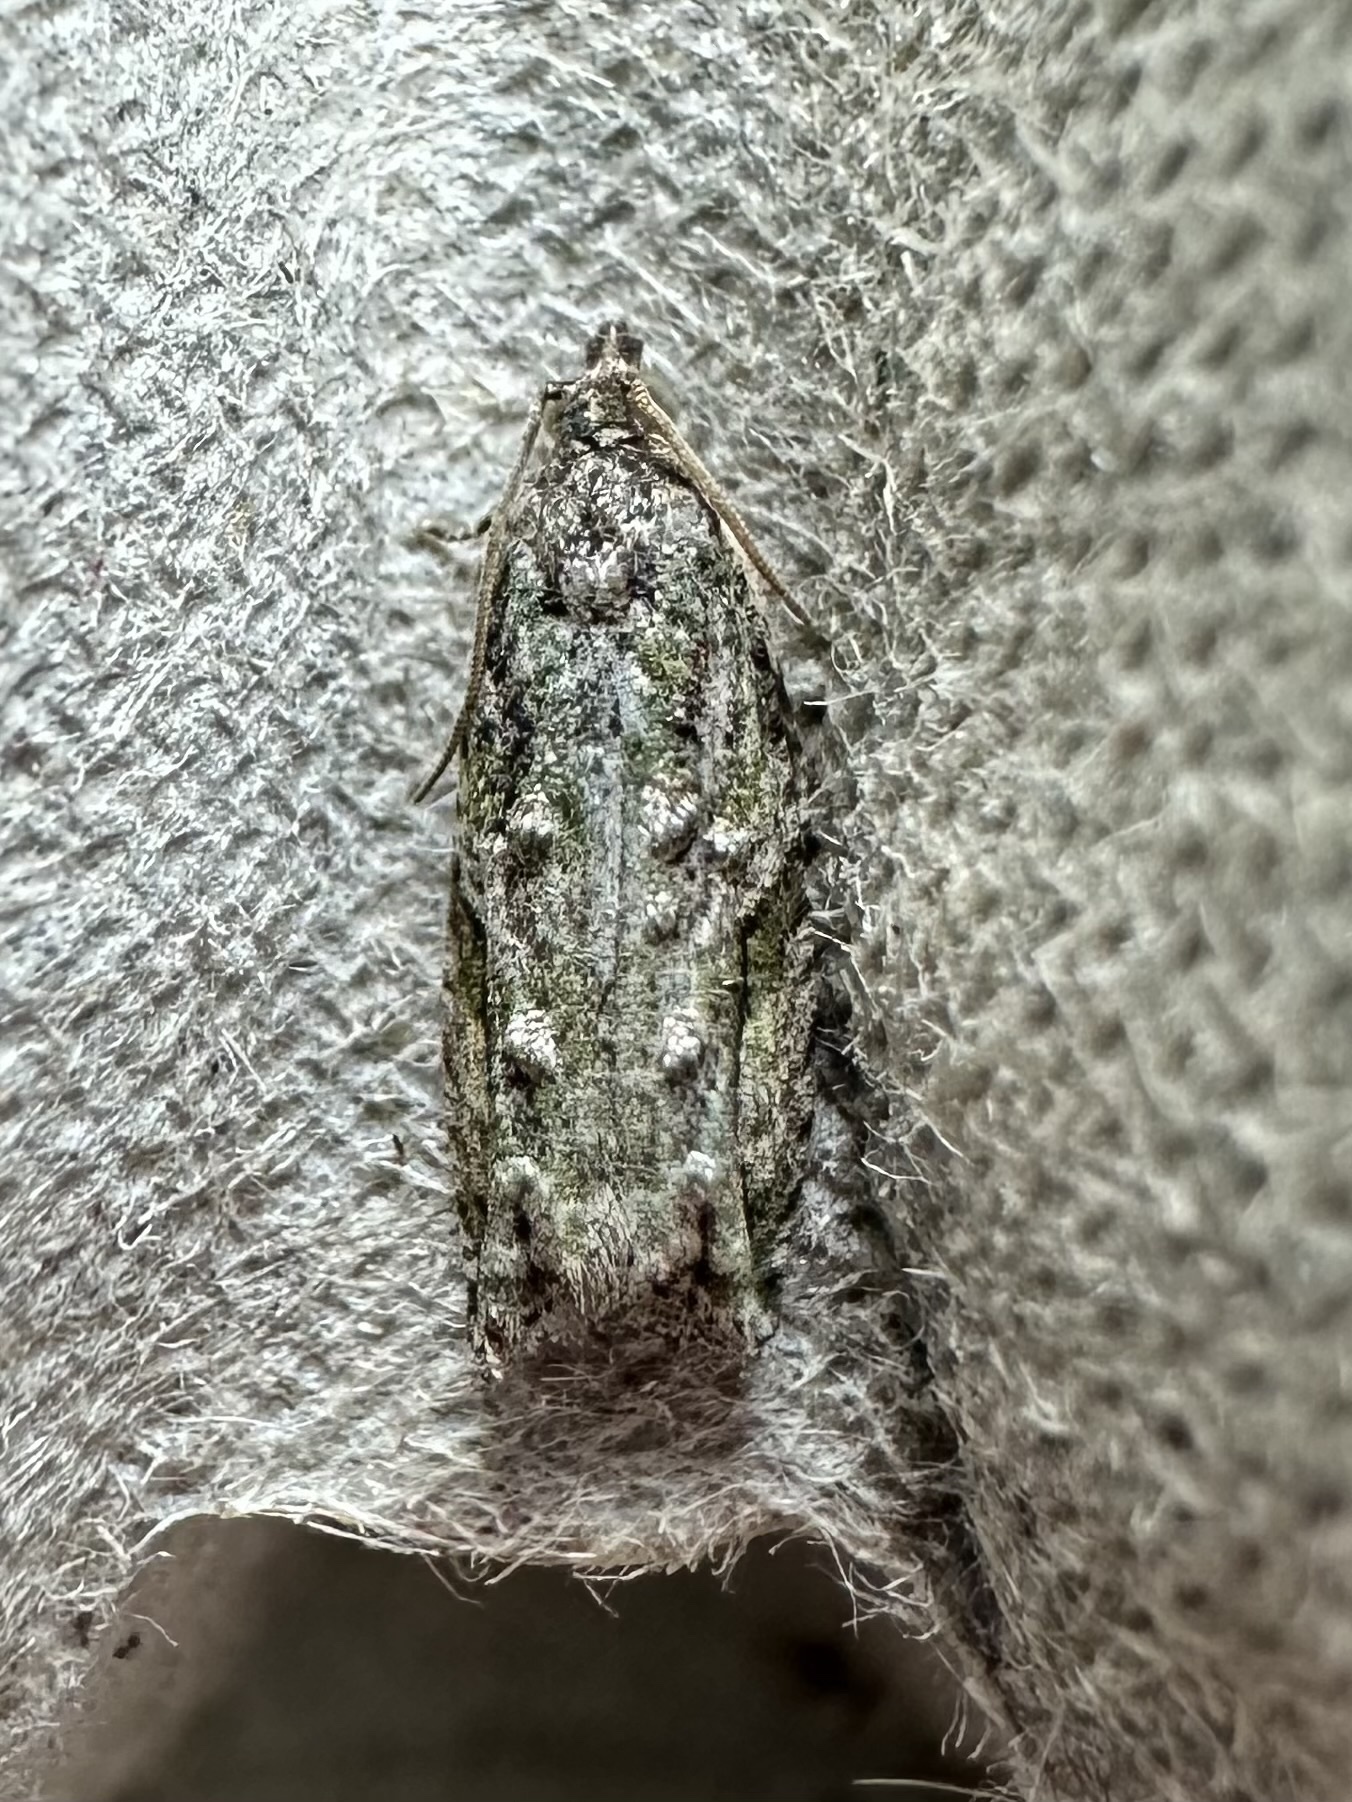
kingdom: Animalia
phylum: Arthropoda
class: Insecta
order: Lepidoptera
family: Tortricidae
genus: Proteoteras
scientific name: Proteoteras aesculana
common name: Maple twig borer moth
